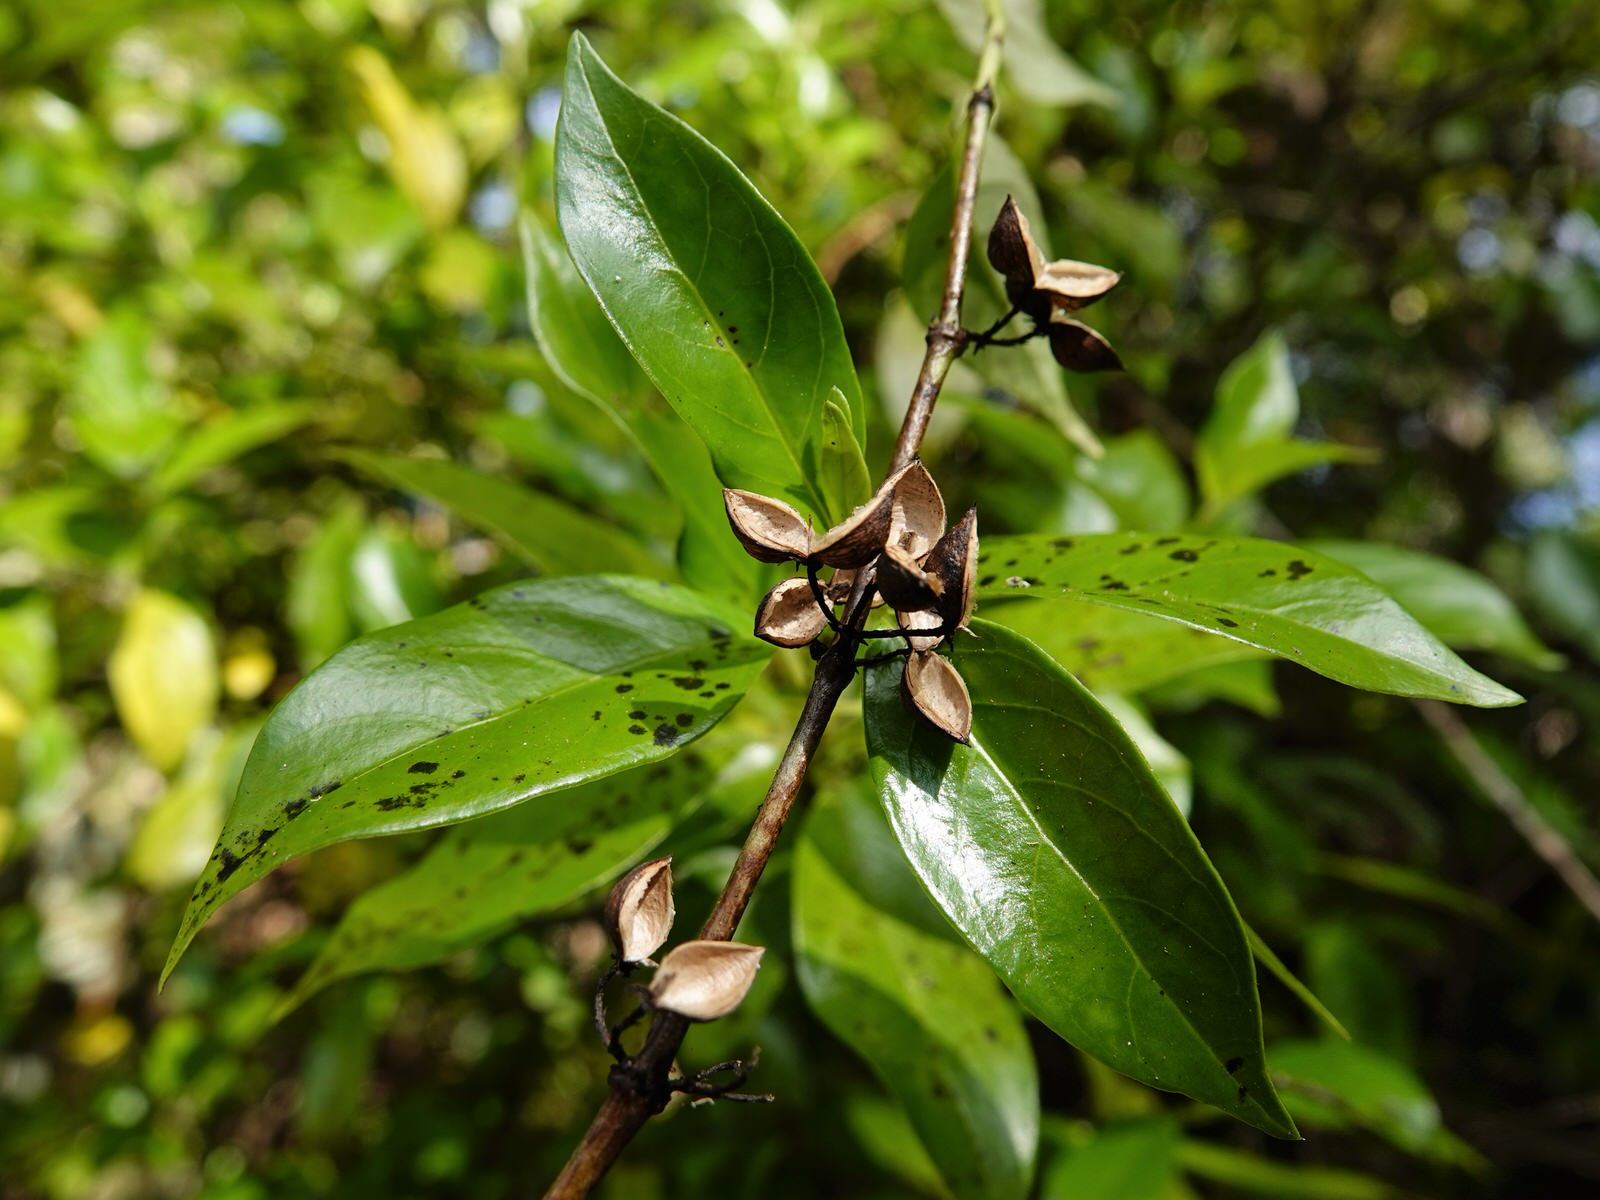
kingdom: Plantae
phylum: Tracheophyta
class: Magnoliopsida
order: Gentianales
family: Loganiaceae
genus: Geniostoma
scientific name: Geniostoma ligustrifolium
